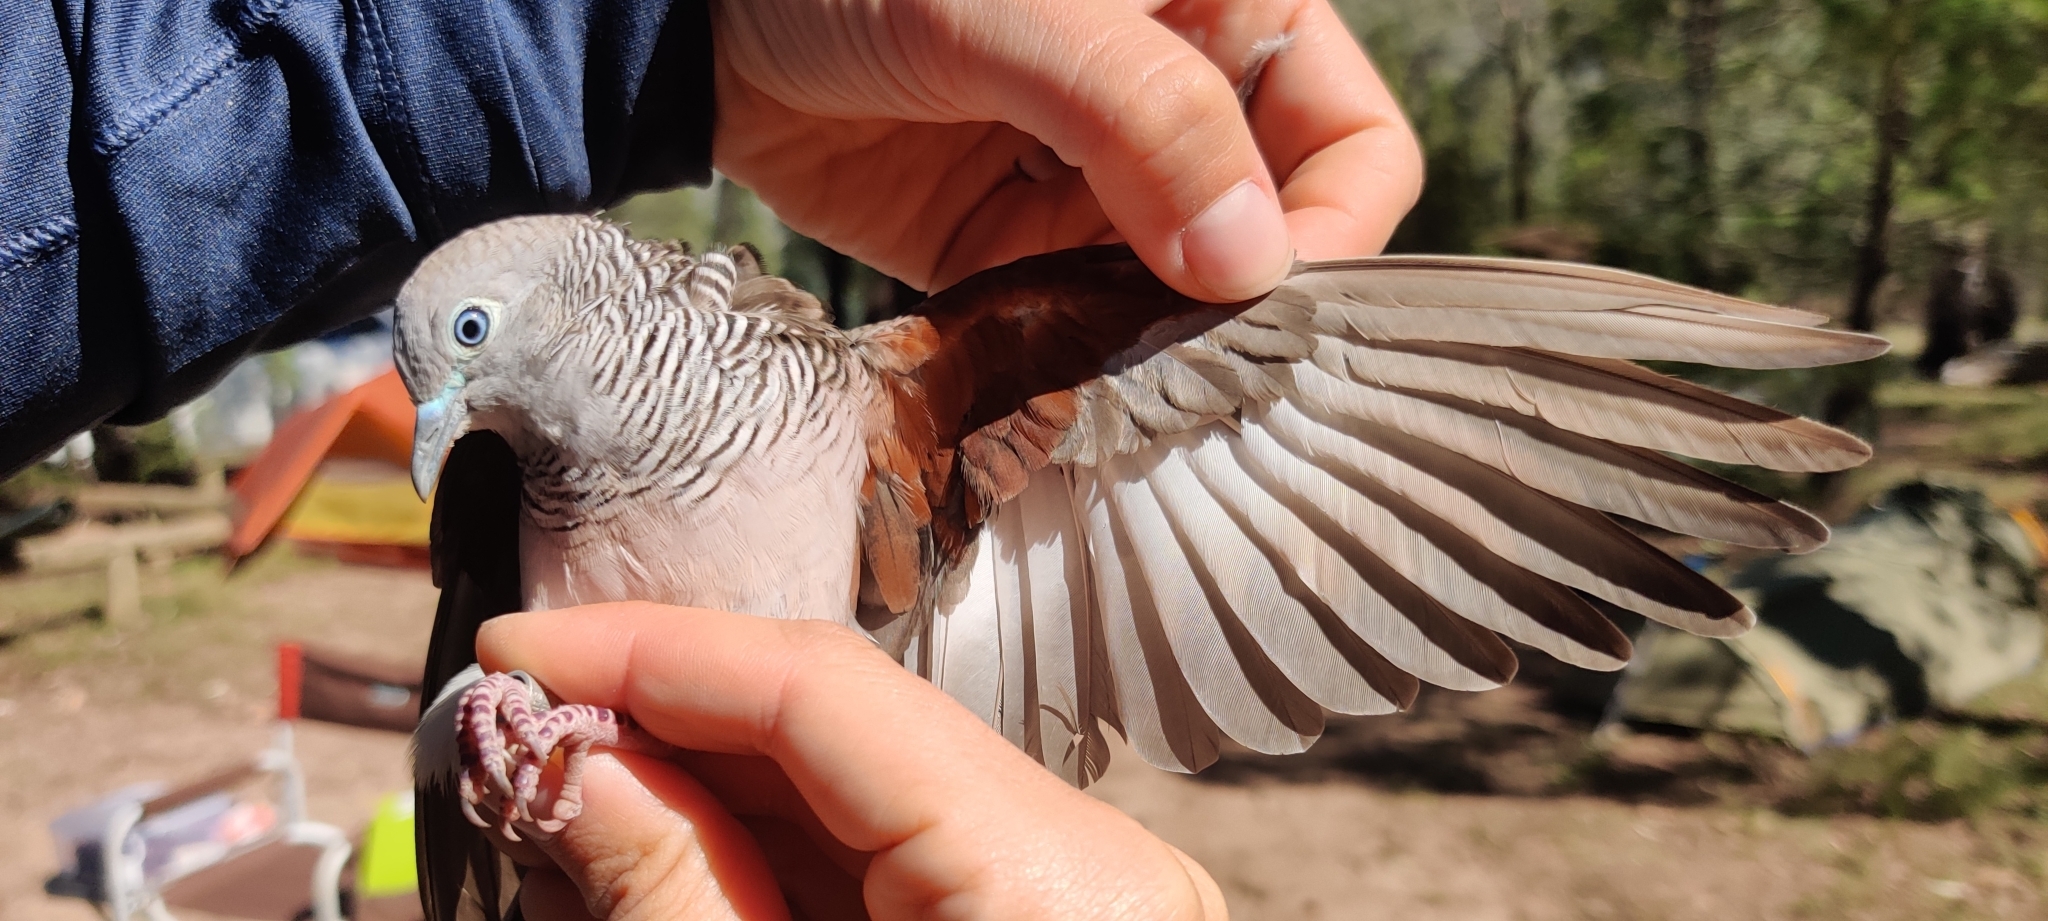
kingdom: Animalia
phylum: Chordata
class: Aves
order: Columbiformes
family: Columbidae
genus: Geopelia
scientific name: Geopelia placida
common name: Peaceful dove
